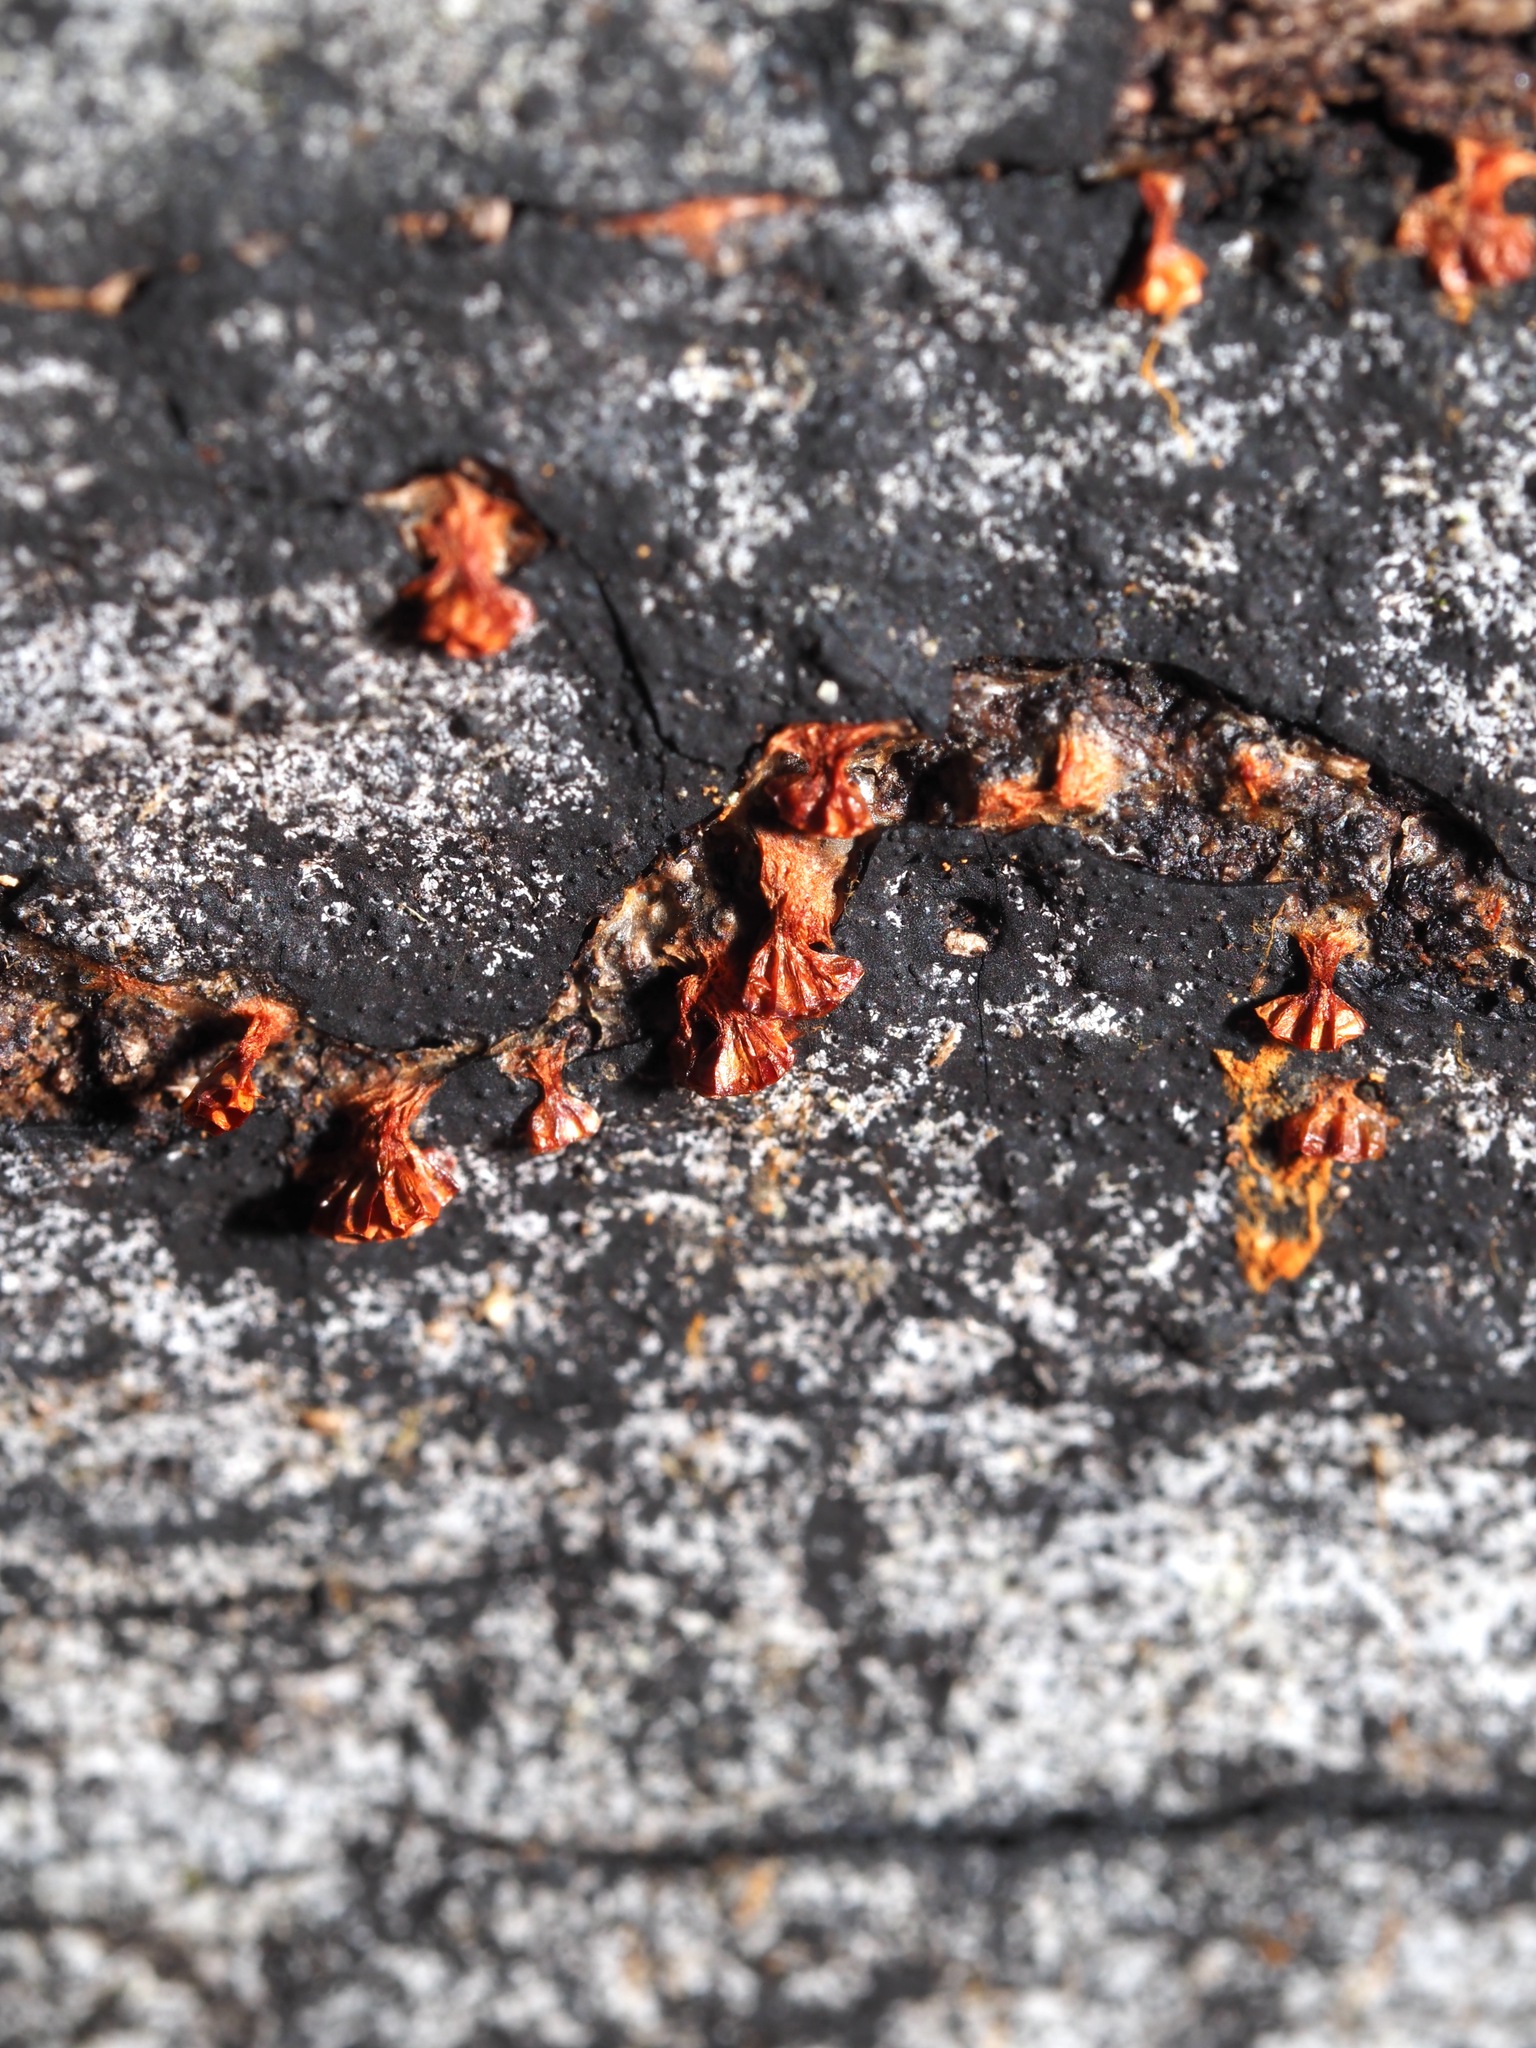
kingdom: Protozoa
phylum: Mycetozoa
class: Myxomycetes
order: Trichiales
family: Trichiaceae
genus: Metatrichia
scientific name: Metatrichia vesparia
